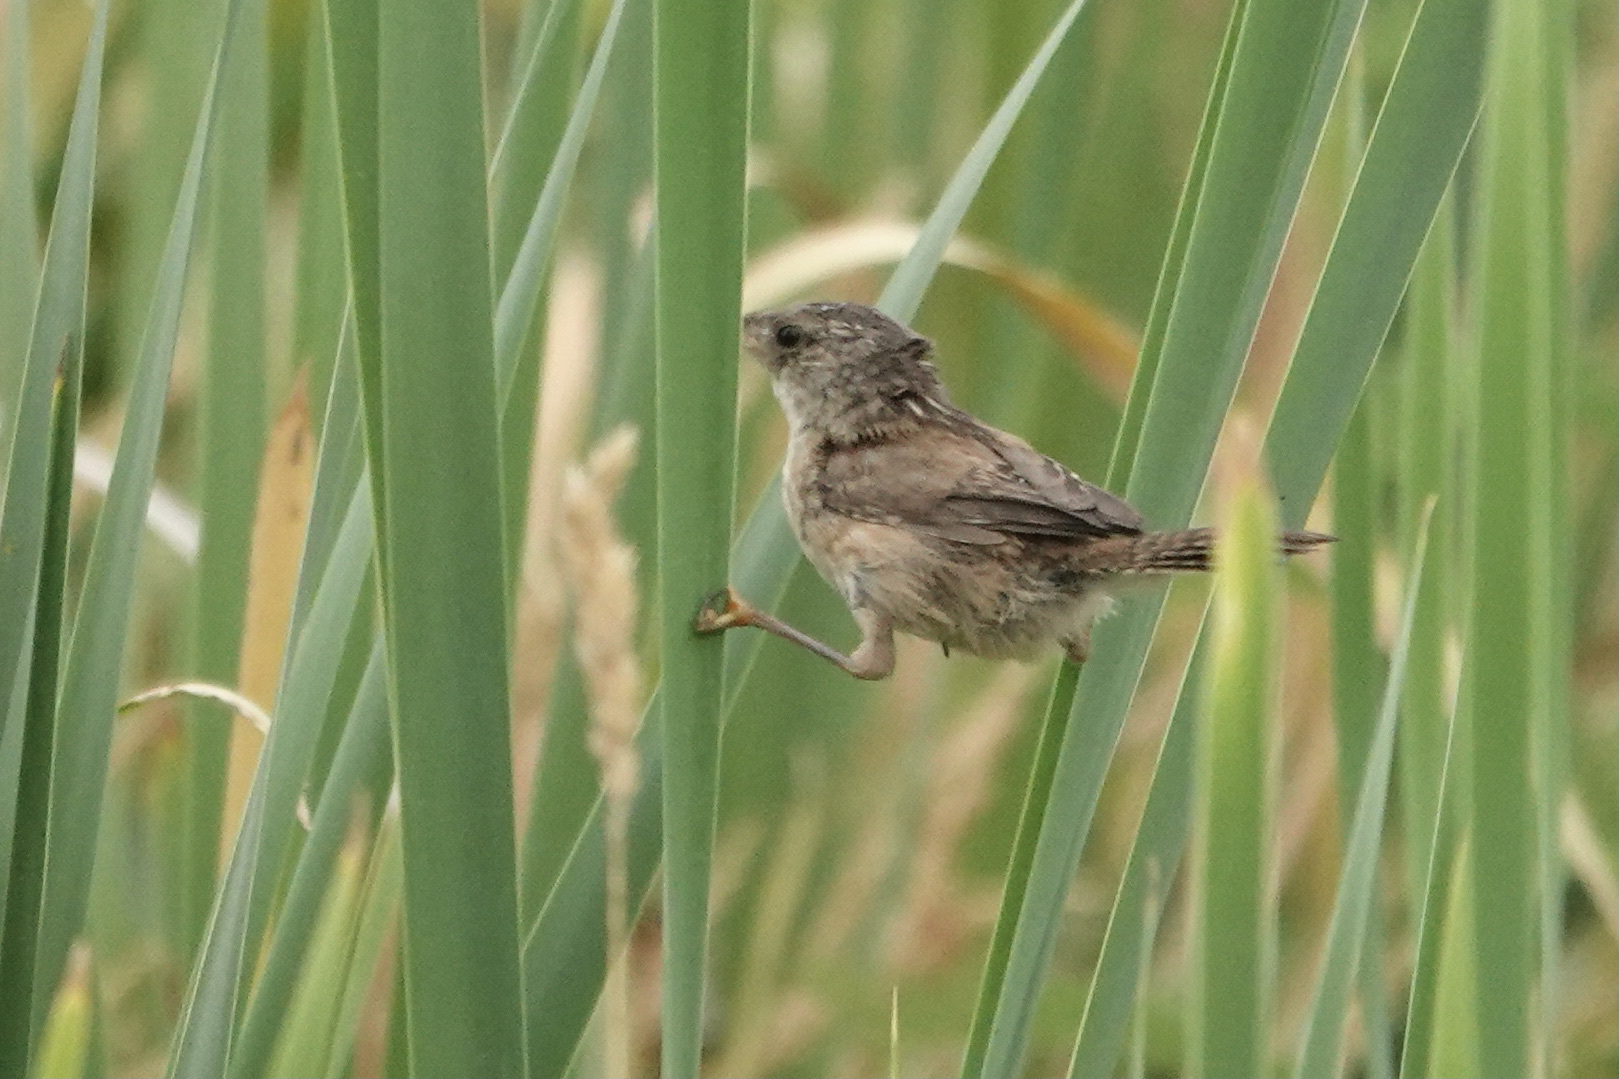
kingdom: Animalia
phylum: Chordata
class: Aves
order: Passeriformes
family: Troglodytidae
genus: Cistothorus
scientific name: Cistothorus palustris
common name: Marsh wren
